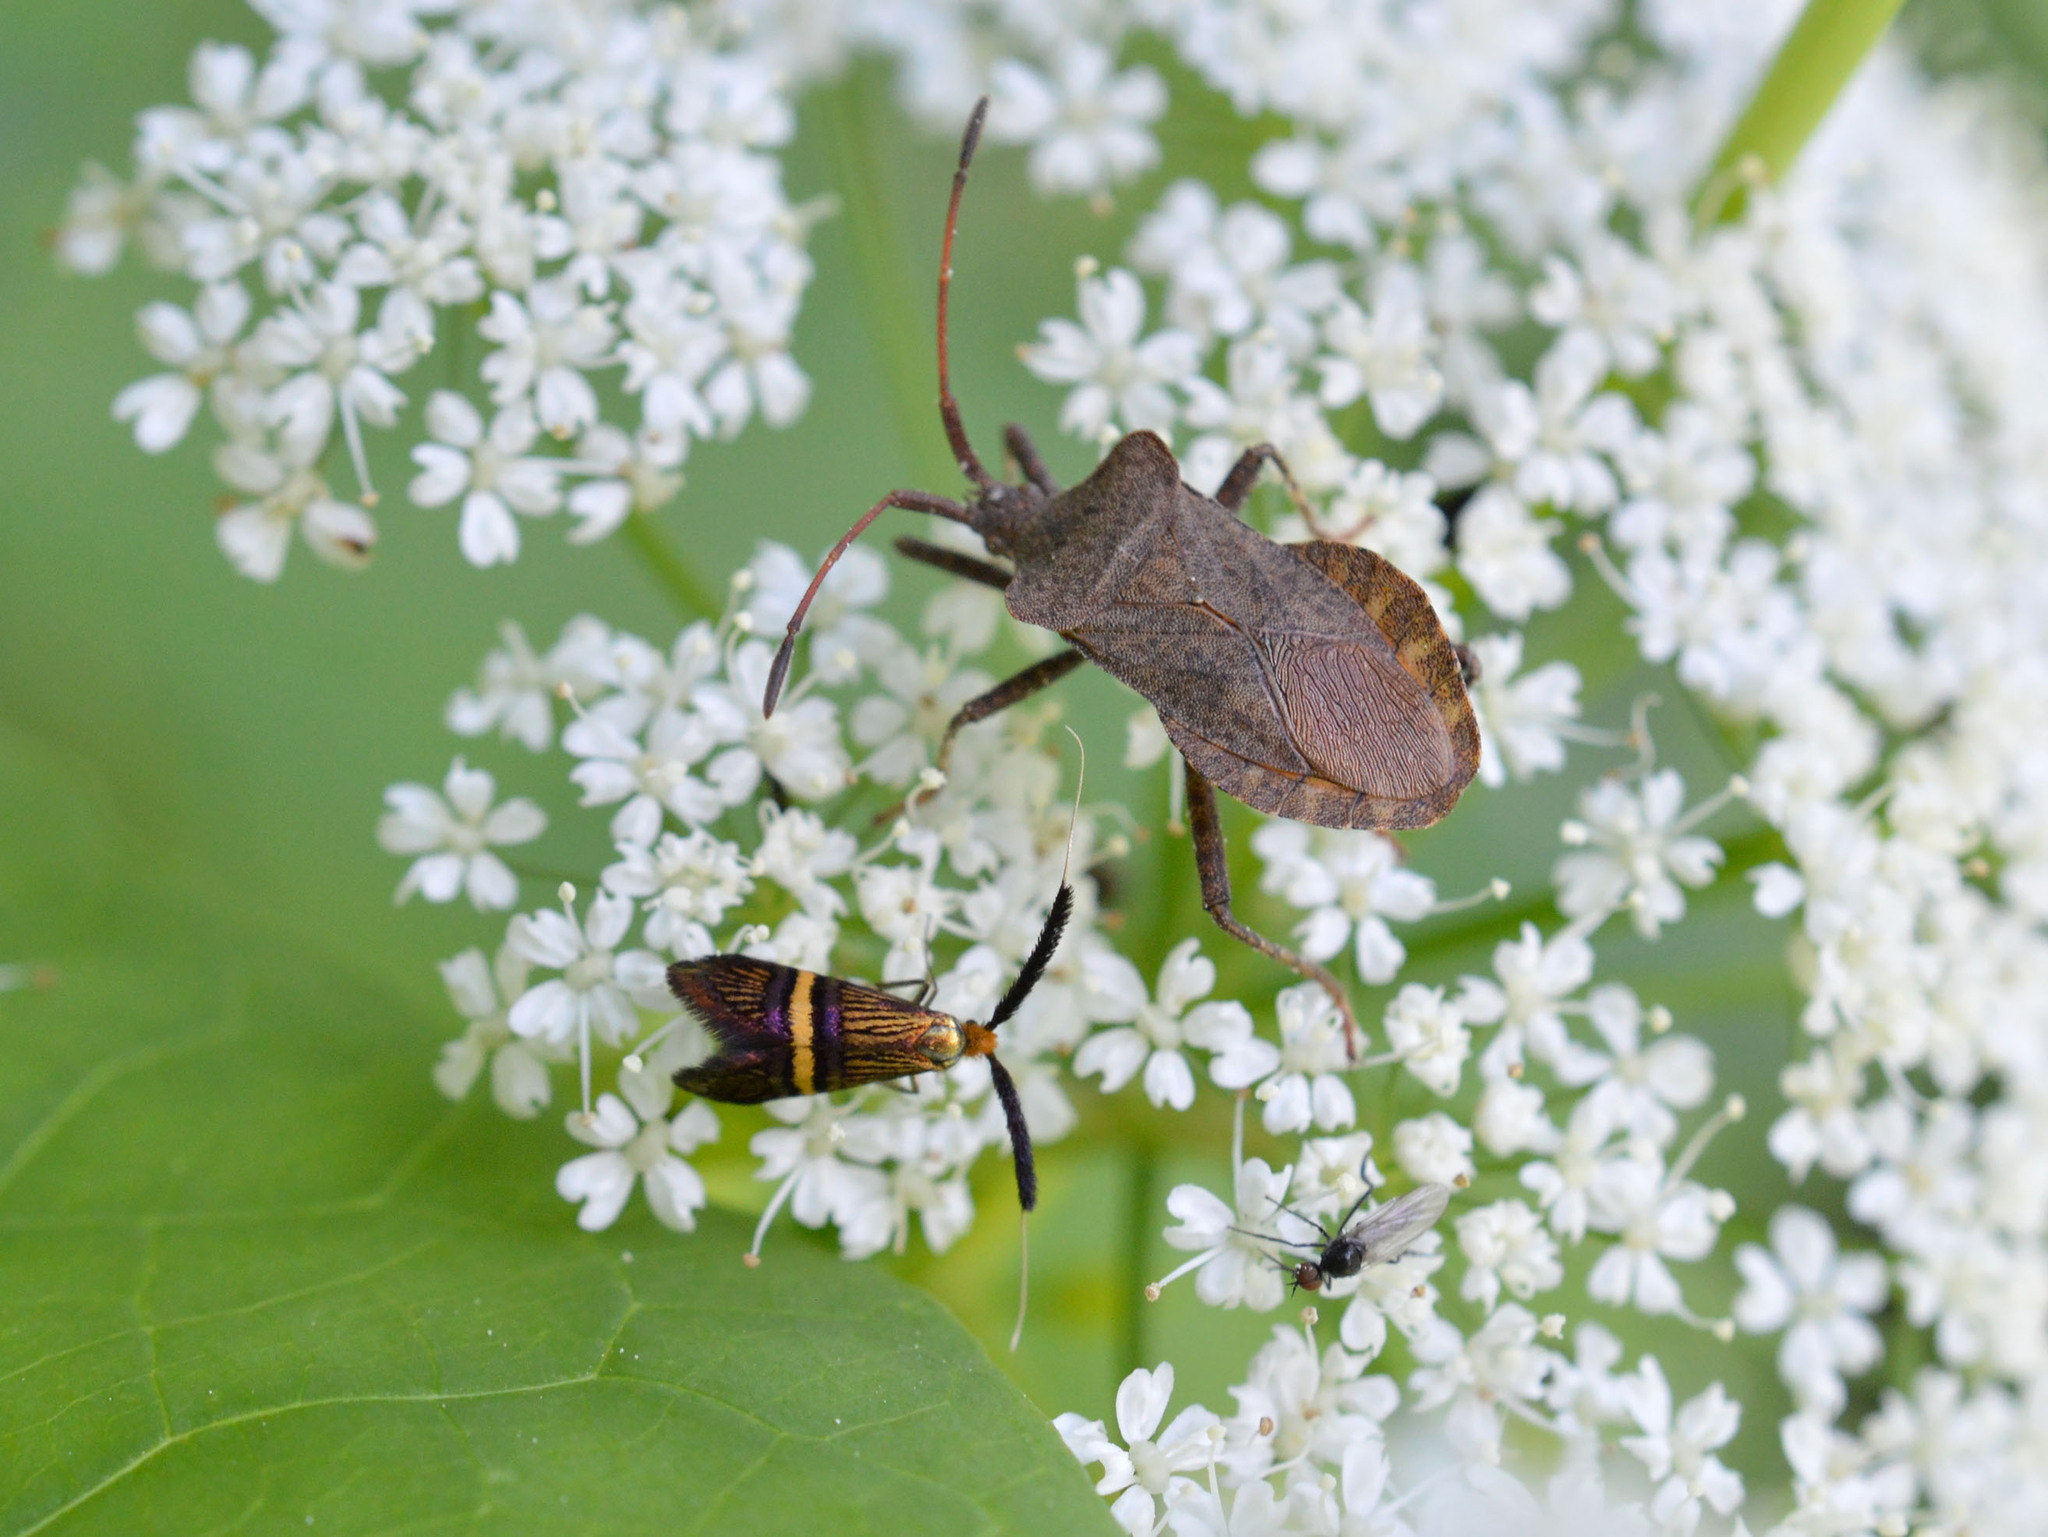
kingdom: Animalia
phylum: Arthropoda
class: Insecta
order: Lepidoptera
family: Adelidae
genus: Adela
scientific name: Adela croesella
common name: Small barred long-horn
